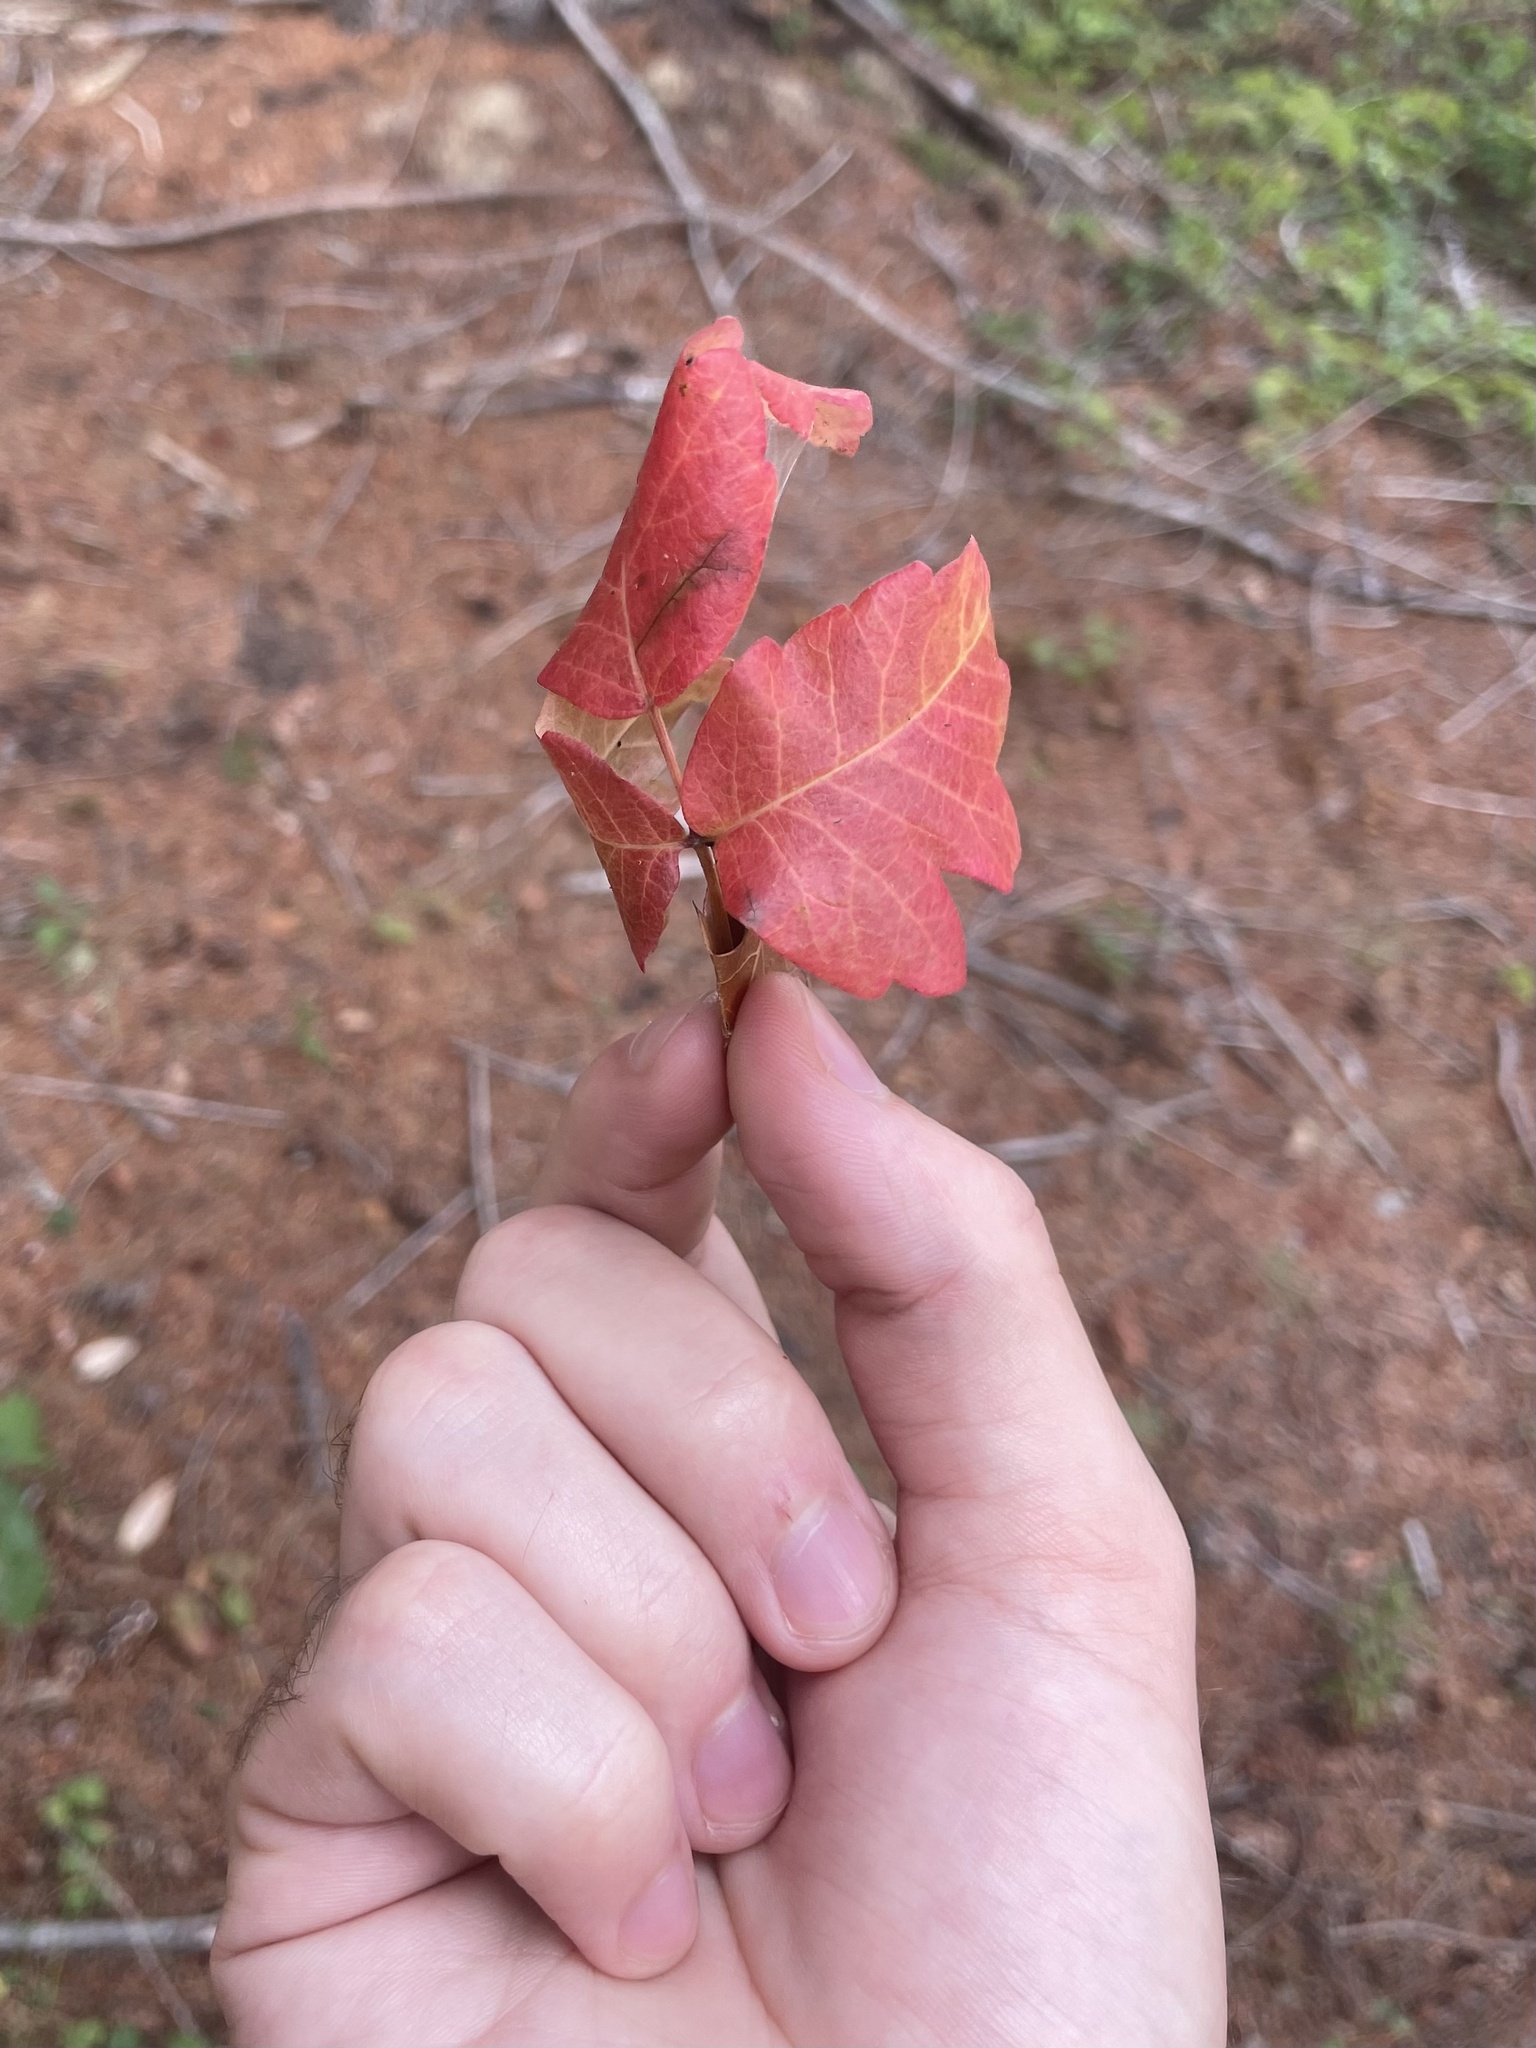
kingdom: Plantae
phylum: Tracheophyta
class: Magnoliopsida
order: Sapindales
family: Anacardiaceae
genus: Toxicodendron
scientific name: Toxicodendron diversilobum
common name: Pacific poison-oak
